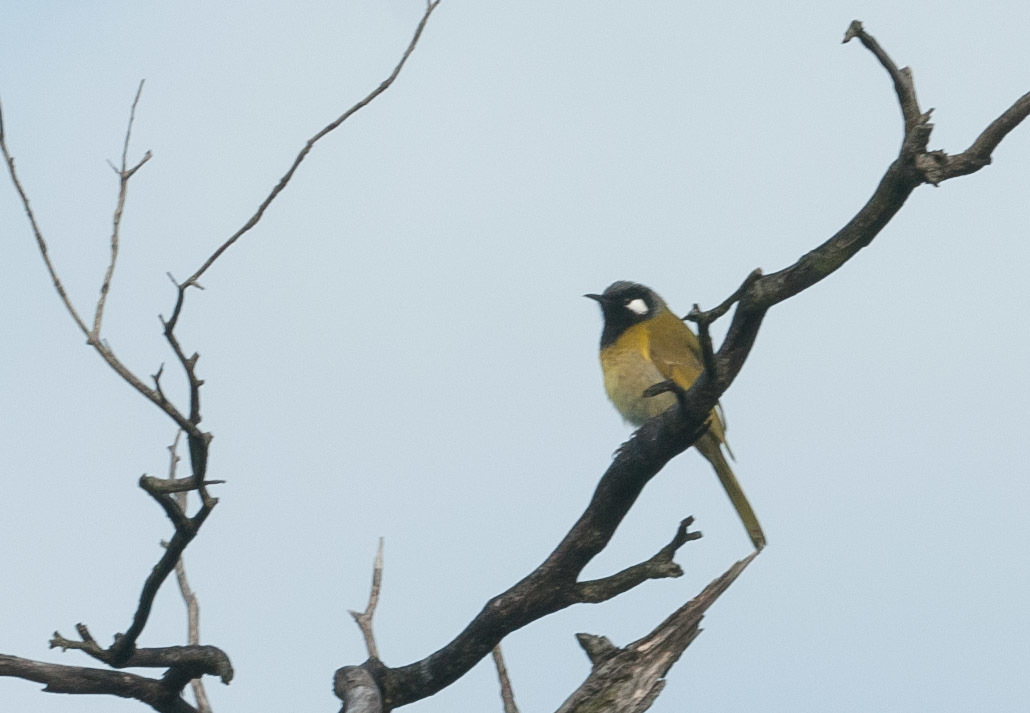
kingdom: Animalia
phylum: Chordata
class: Aves
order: Passeriformes
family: Meliphagidae
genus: Nesoptilotis
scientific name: Nesoptilotis leucotis
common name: White-eared honeyeater
